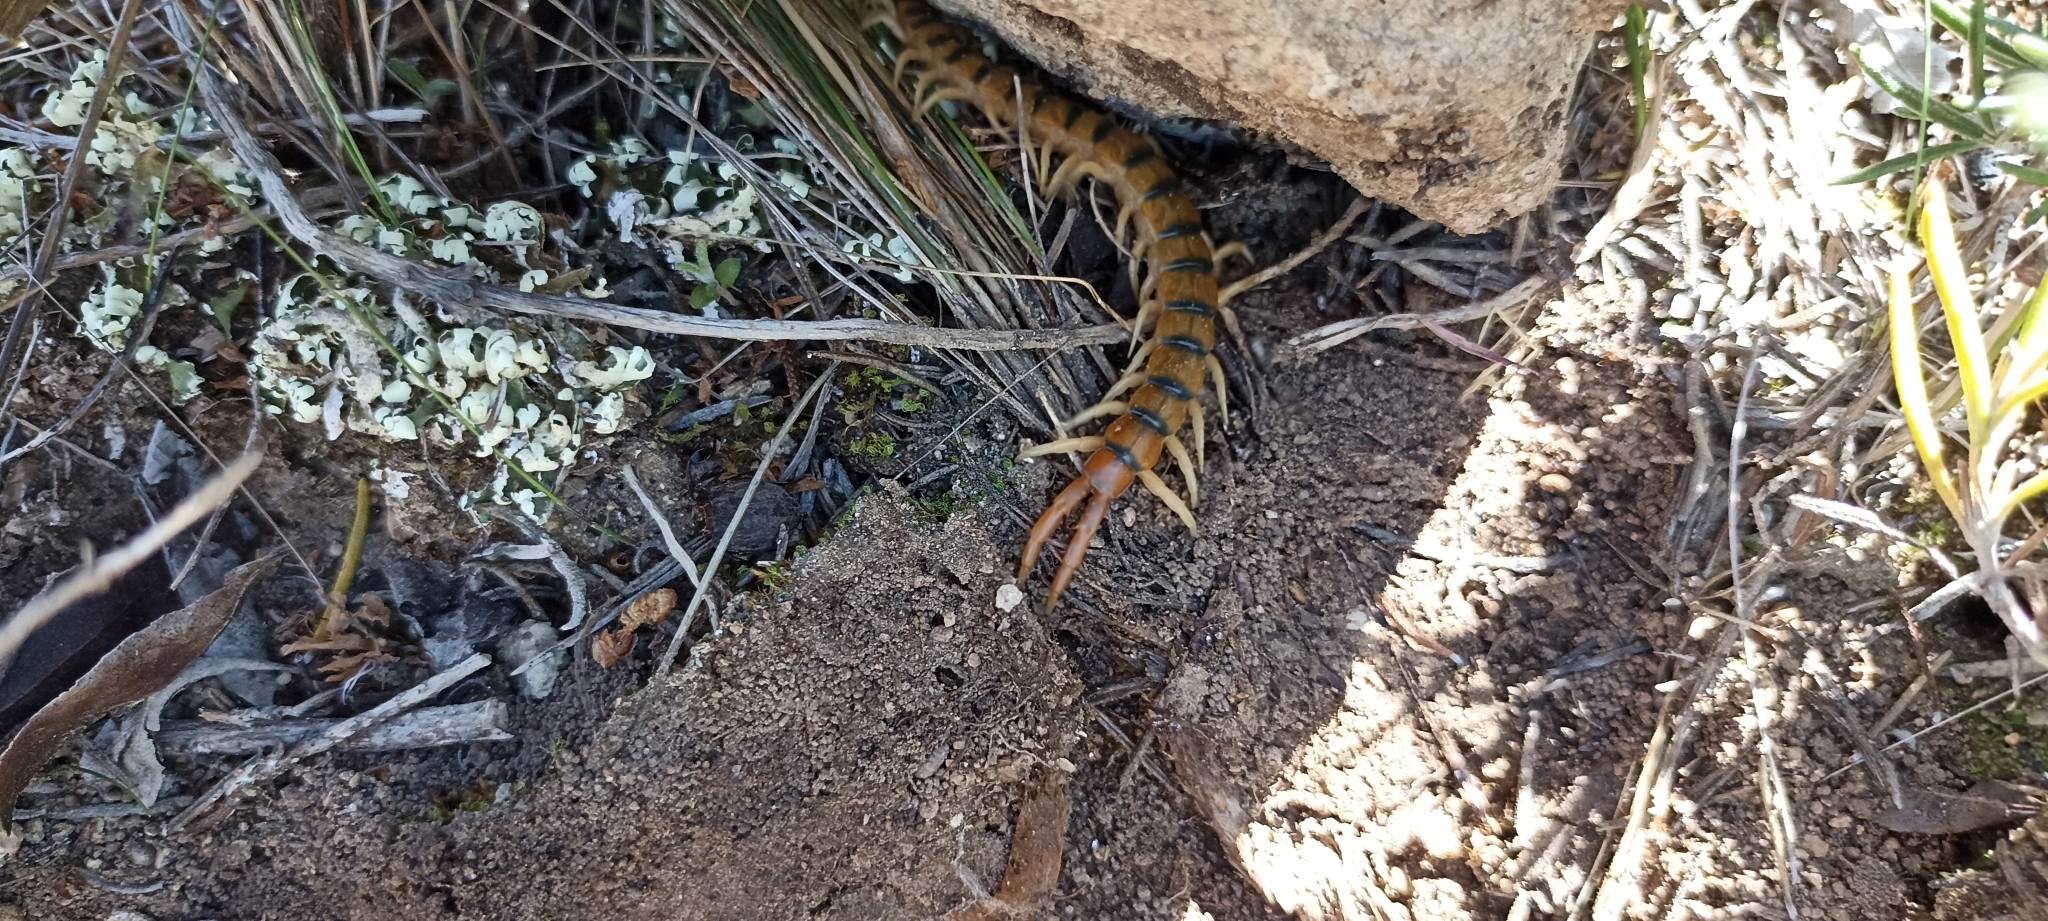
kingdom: Animalia
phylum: Arthropoda
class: Chilopoda
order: Scolopendromorpha
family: Scolopendridae
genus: Scolopendra
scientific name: Scolopendra cingulata
